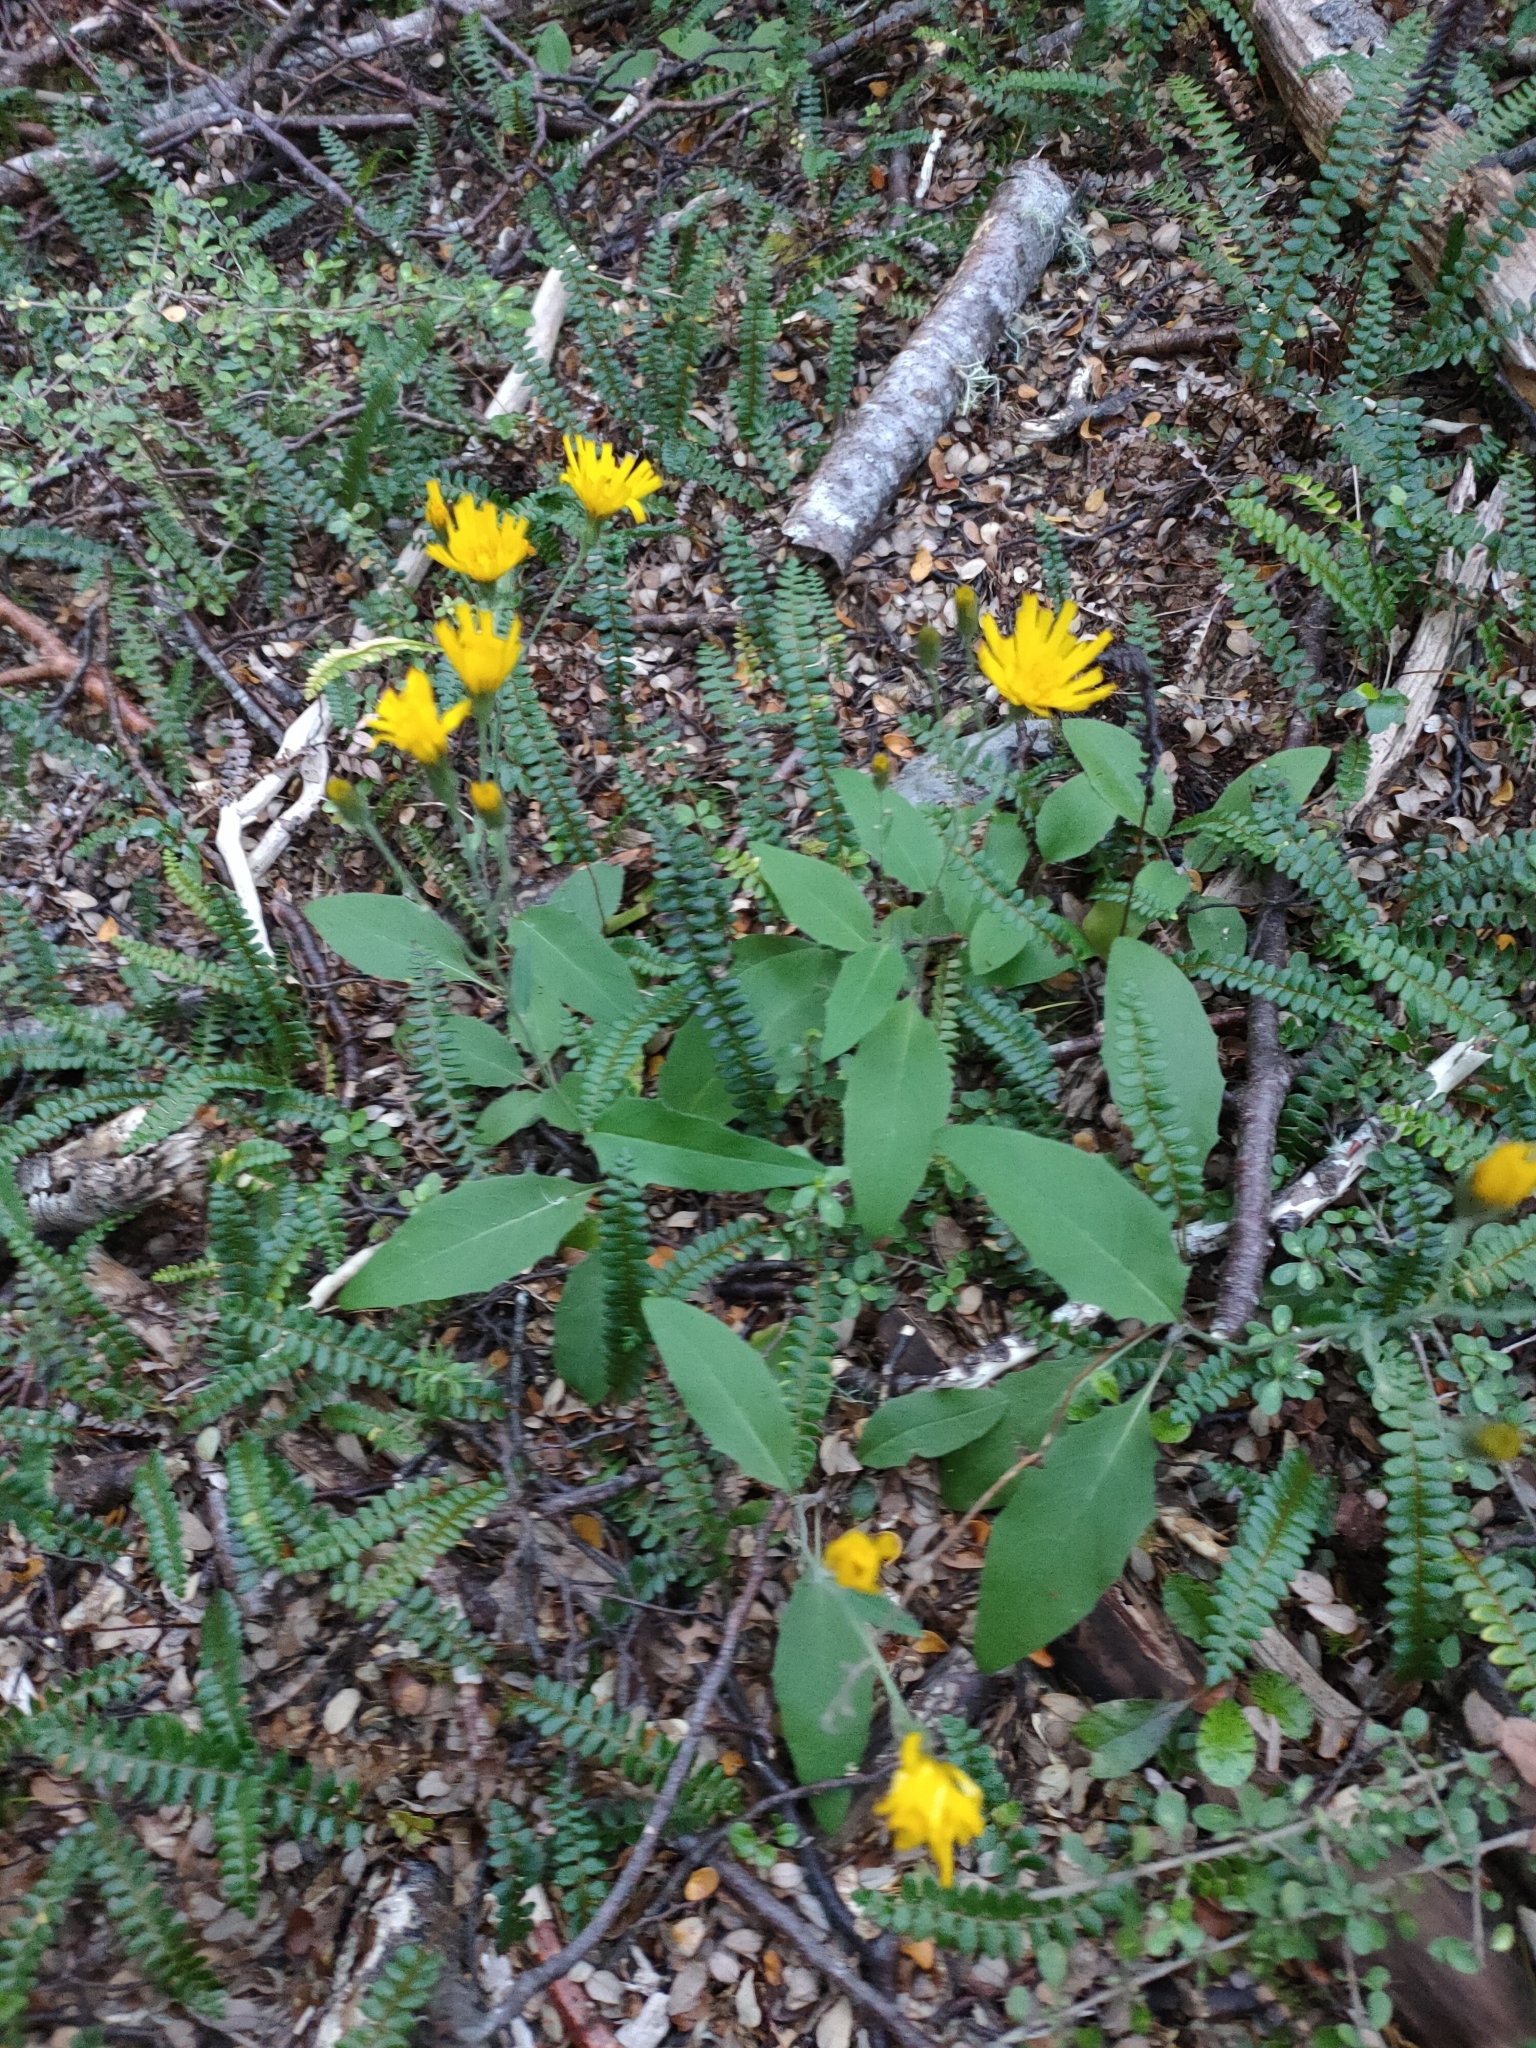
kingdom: Plantae
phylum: Tracheophyta
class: Magnoliopsida
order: Asterales
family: Asteraceae
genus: Hieracium
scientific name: Hieracium lepidulum
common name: Irregular-toothed hawkweed
